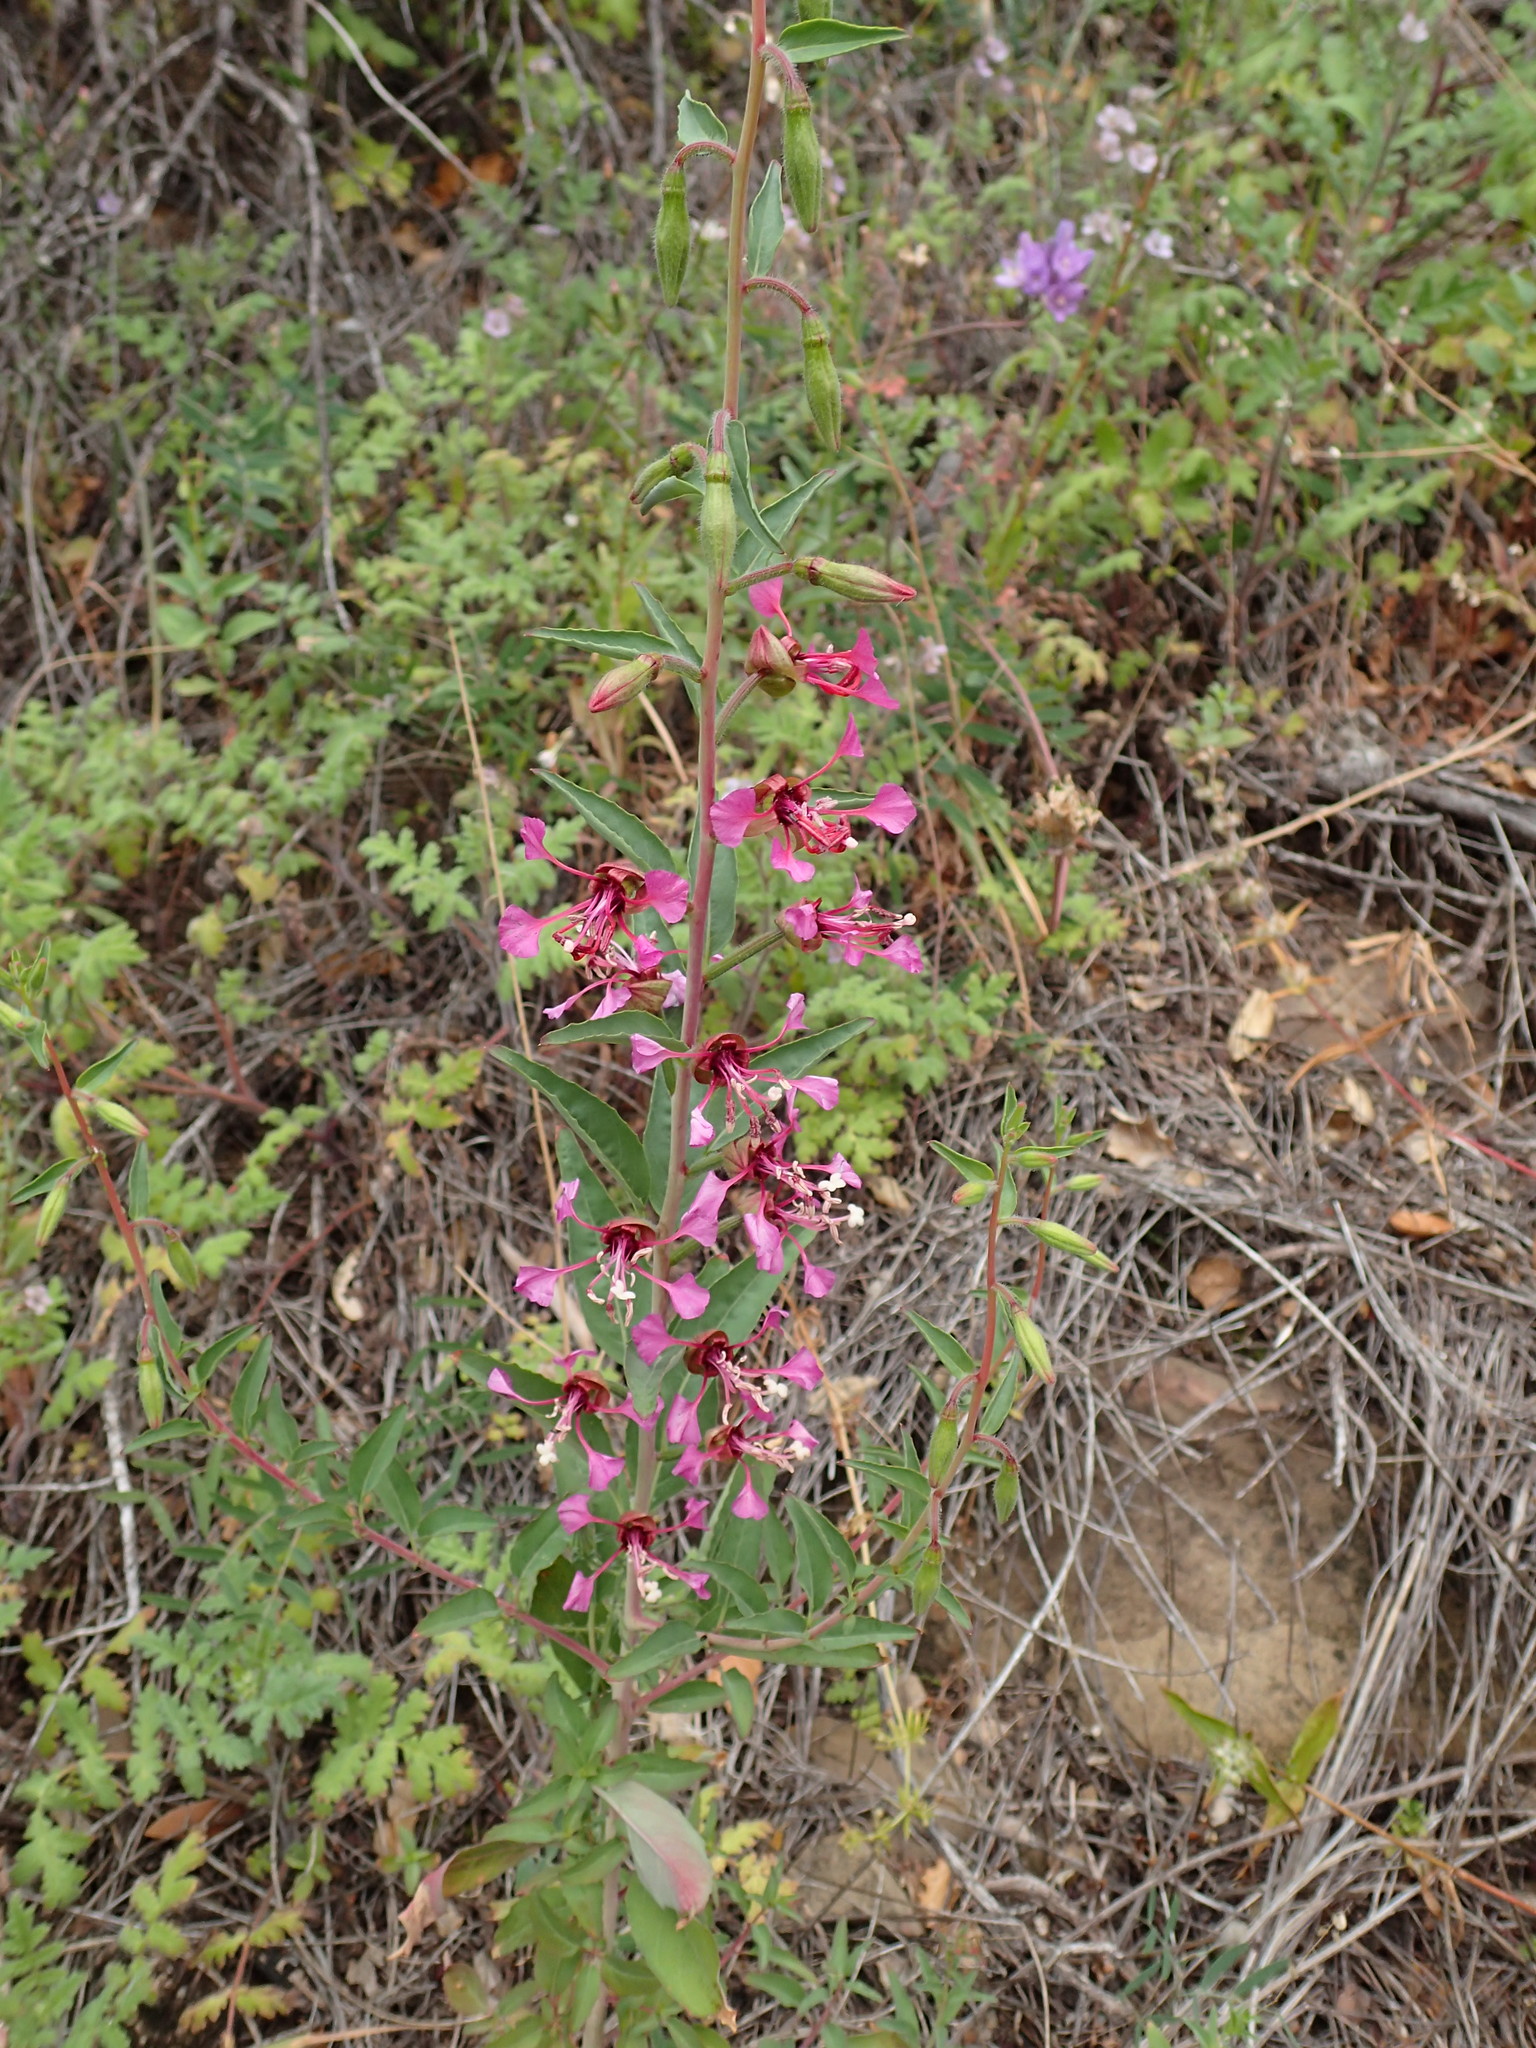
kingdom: Plantae
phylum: Tracheophyta
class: Magnoliopsida
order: Myrtales
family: Onagraceae
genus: Clarkia
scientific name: Clarkia unguiculata
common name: Clarkia
